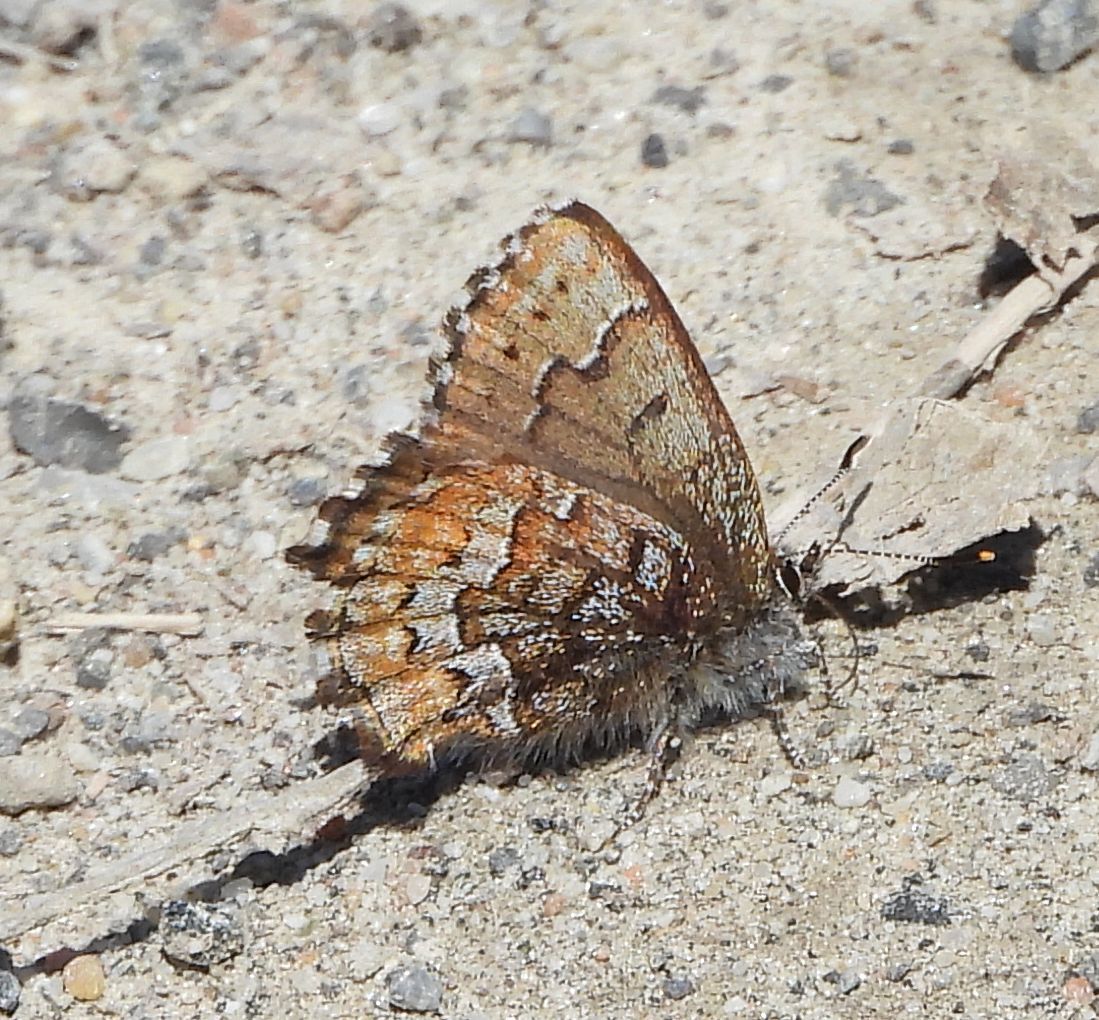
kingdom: Animalia
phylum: Arthropoda
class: Insecta
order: Lepidoptera
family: Lycaenidae
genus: Incisalia
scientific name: Incisalia niphon
